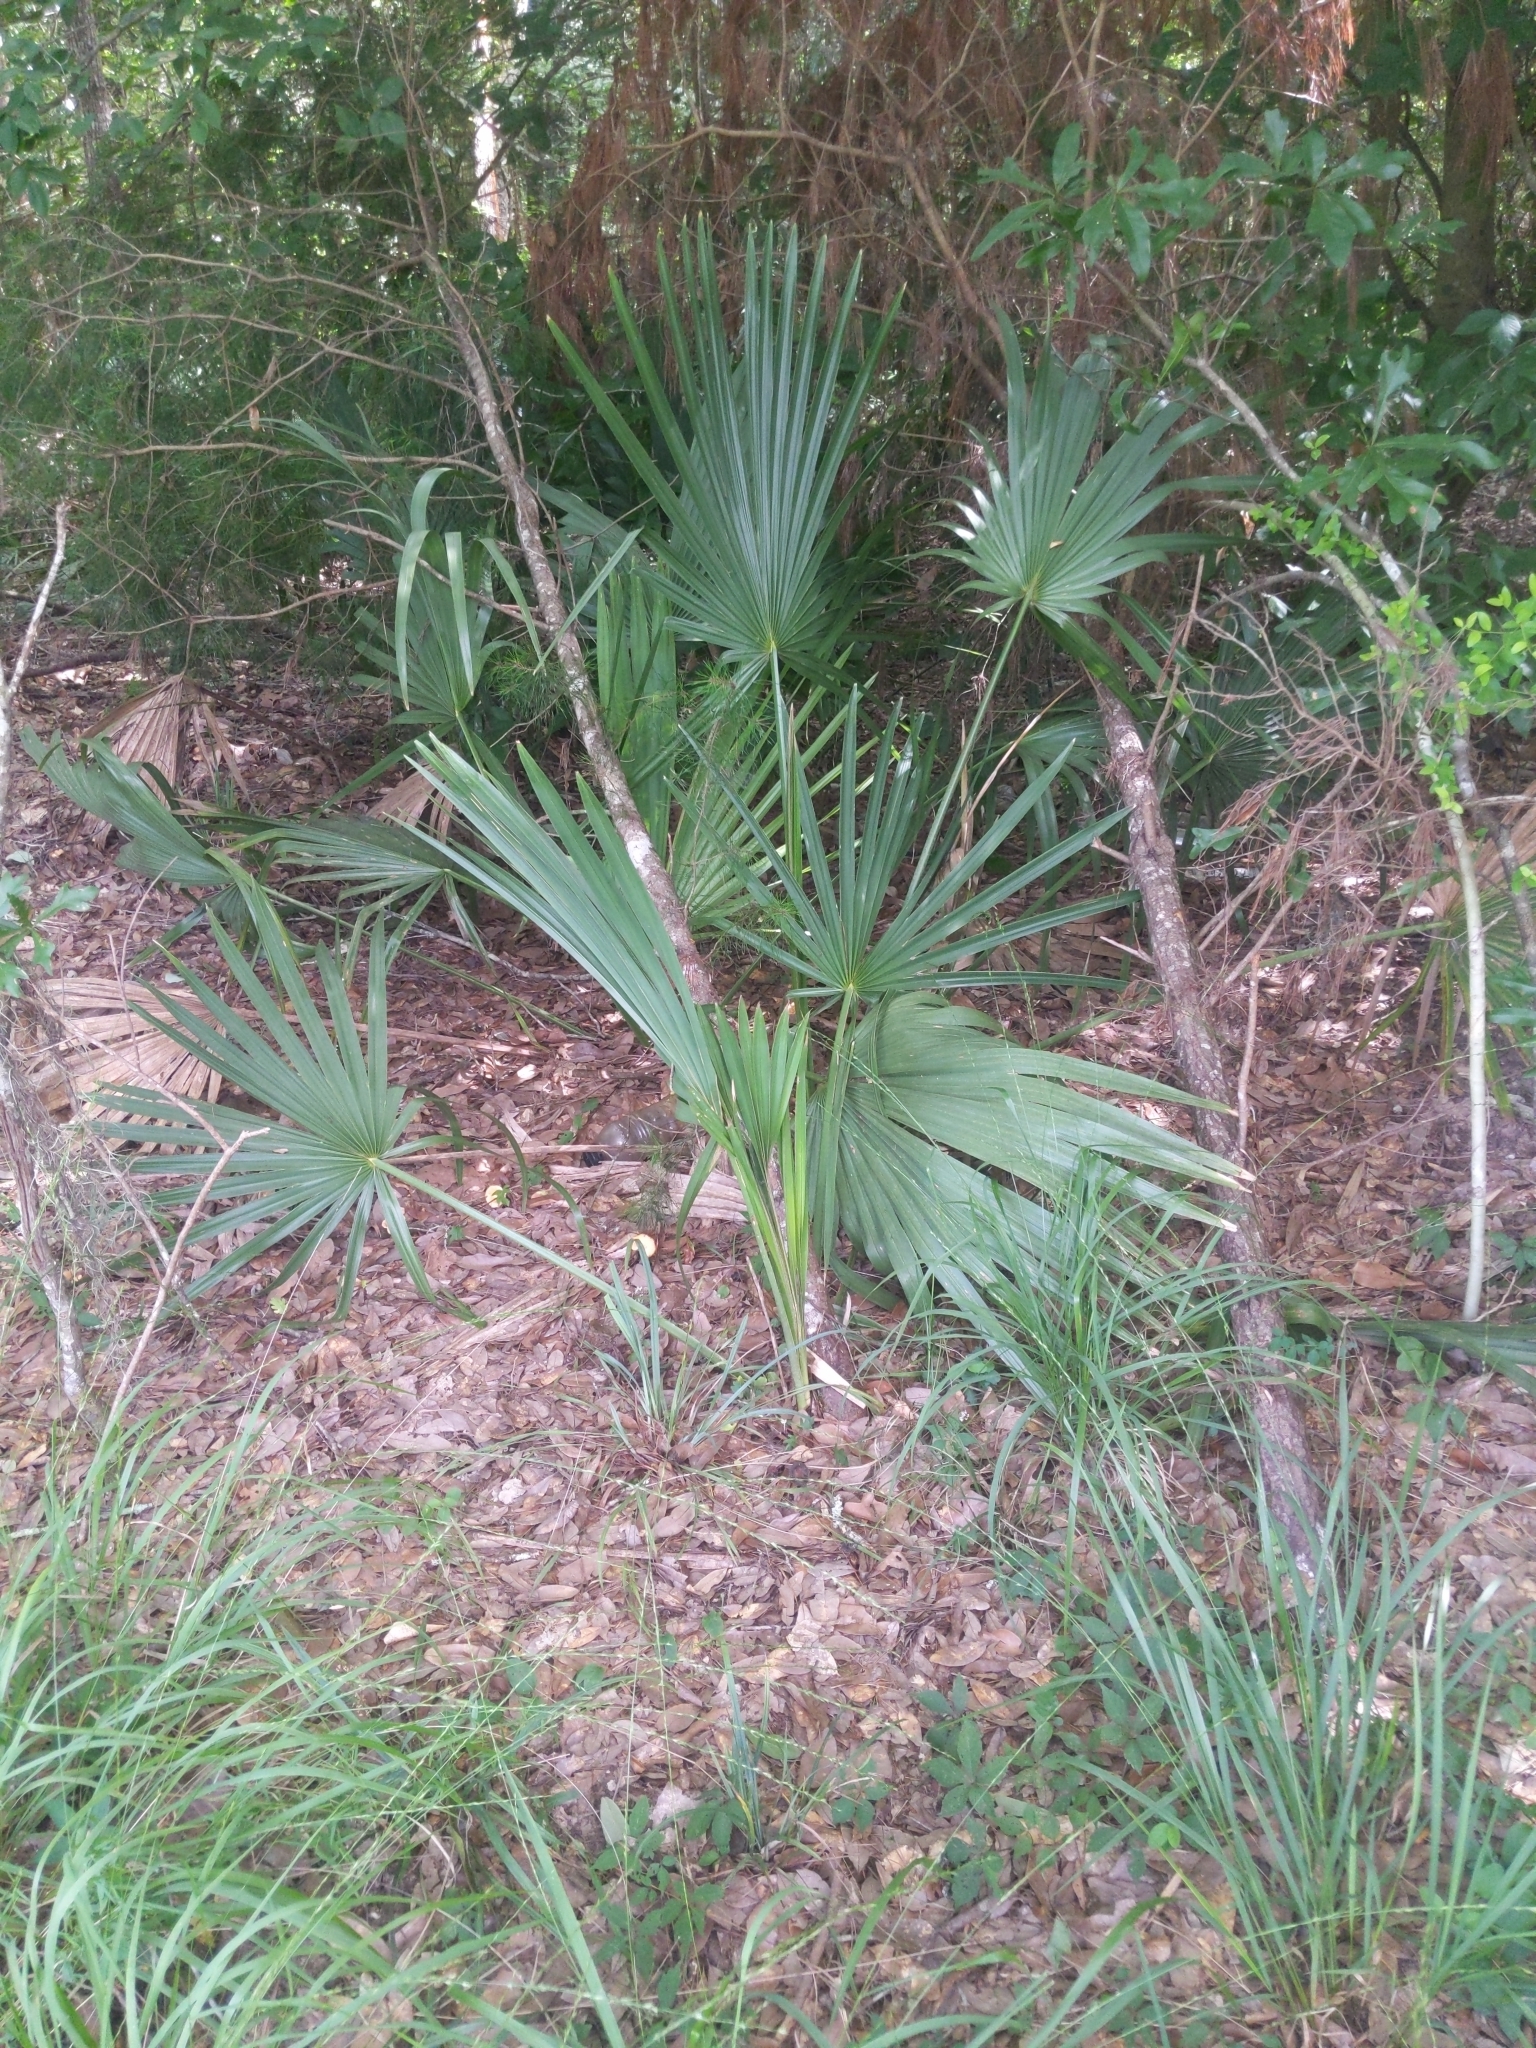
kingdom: Plantae
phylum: Tracheophyta
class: Liliopsida
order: Arecales
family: Arecaceae
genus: Sabal
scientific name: Sabal minor
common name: Dwarf palmetto
